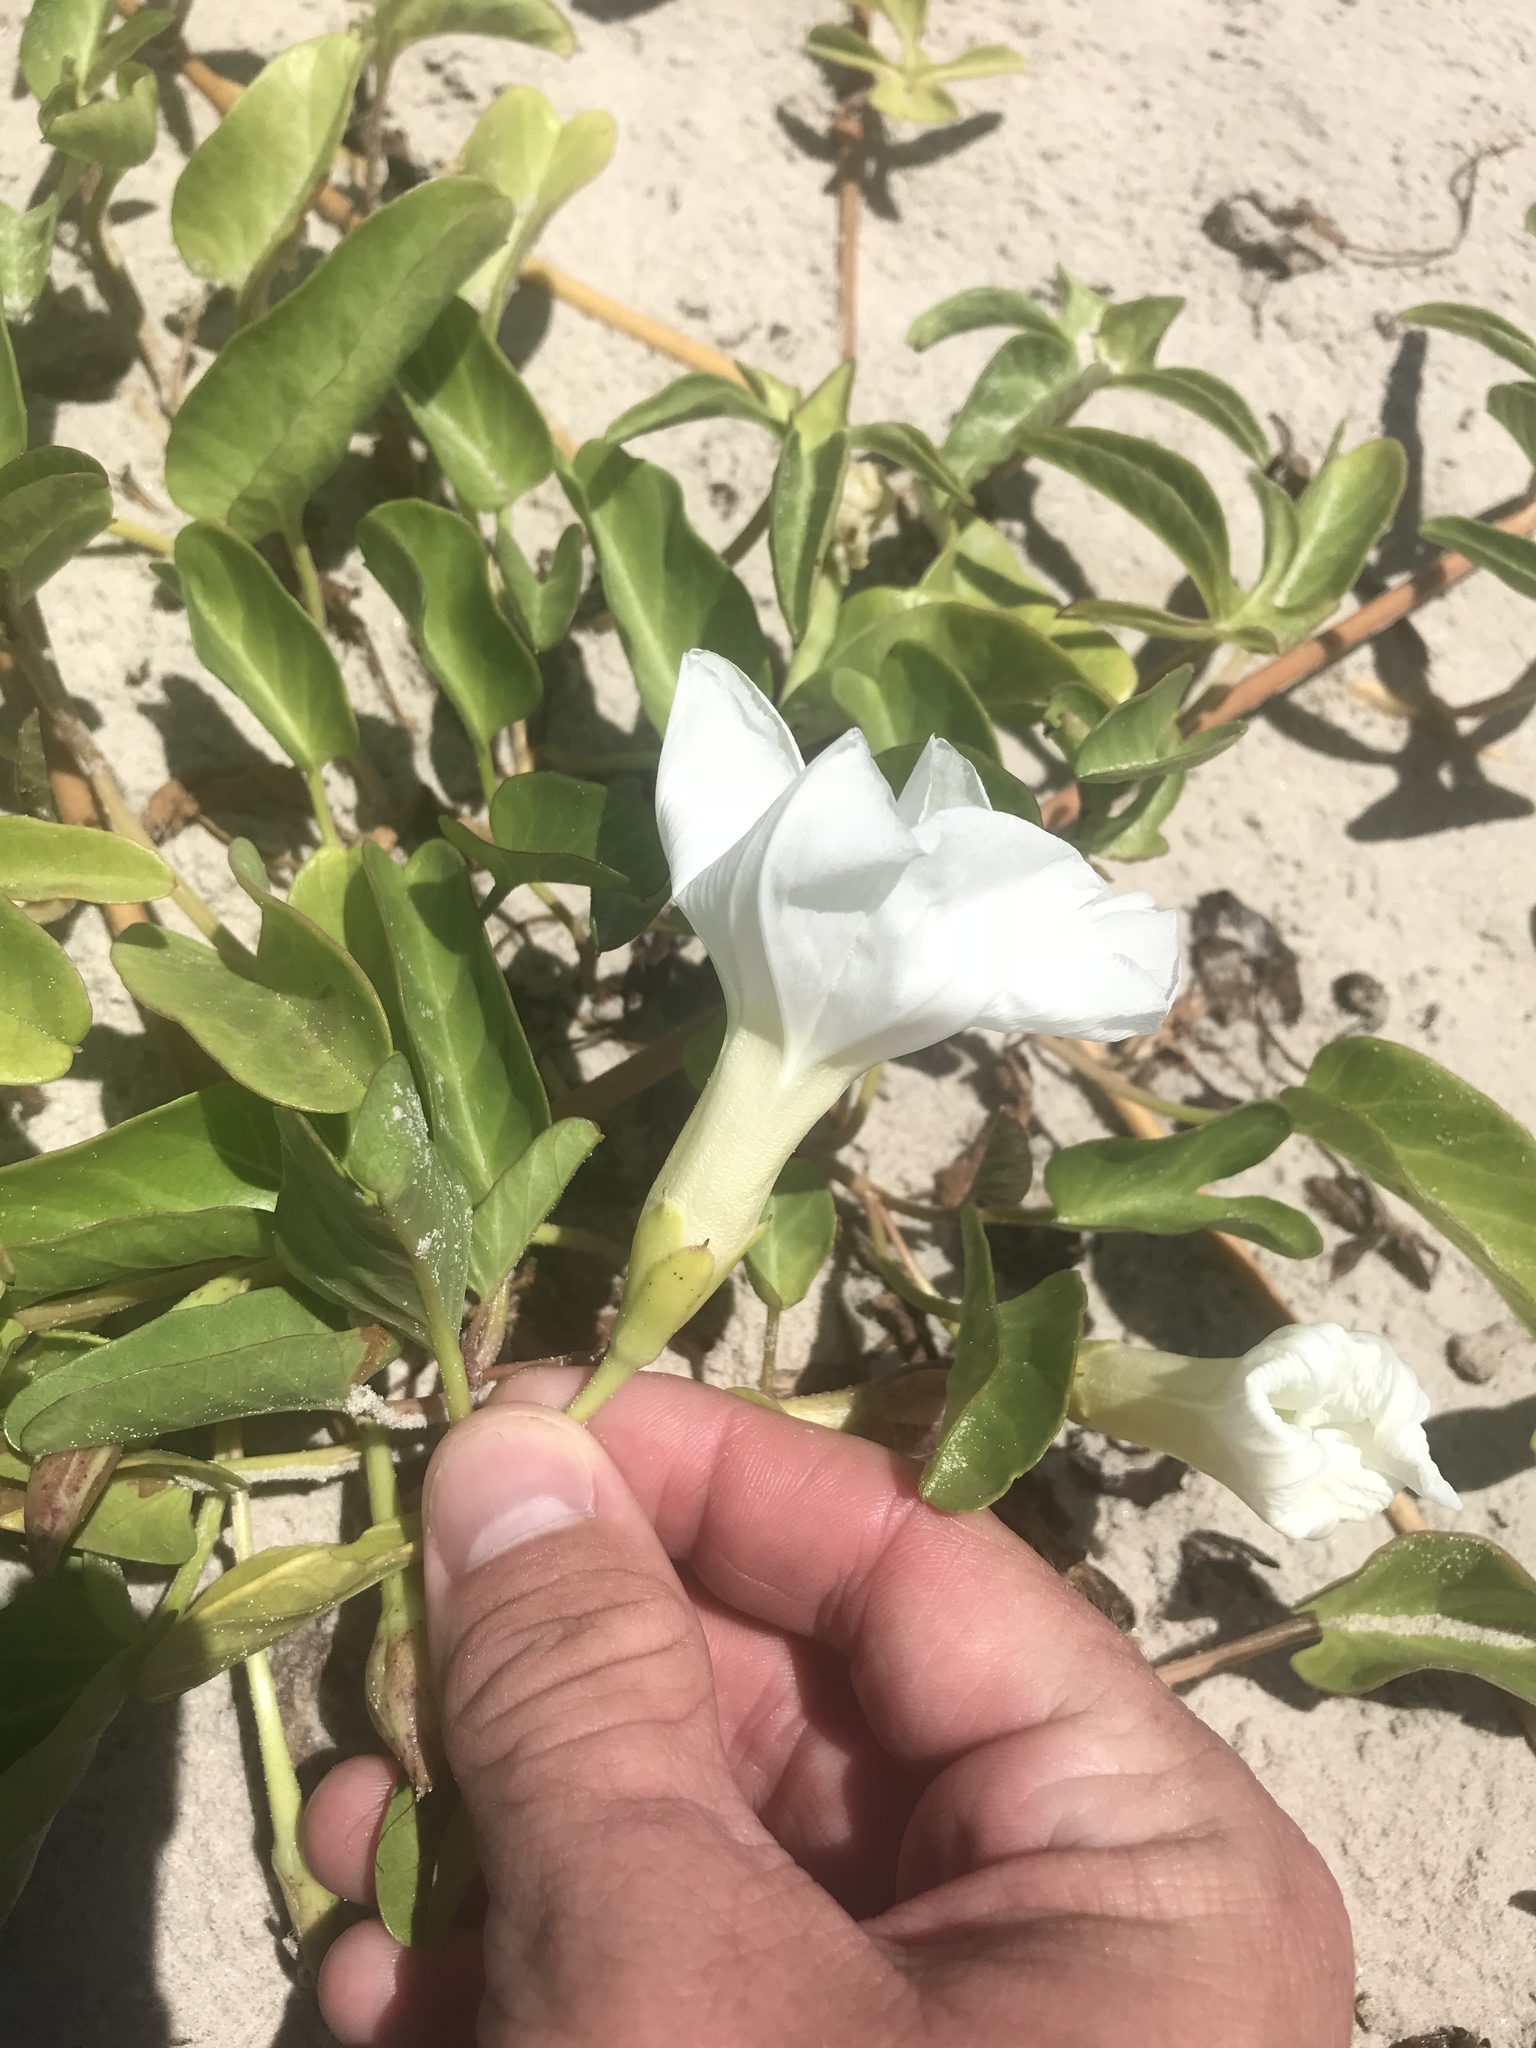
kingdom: Plantae
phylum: Tracheophyta
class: Magnoliopsida
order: Solanales
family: Convolvulaceae
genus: Ipomoea
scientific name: Ipomoea imperati
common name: Fiddle-leaf morning-glory
